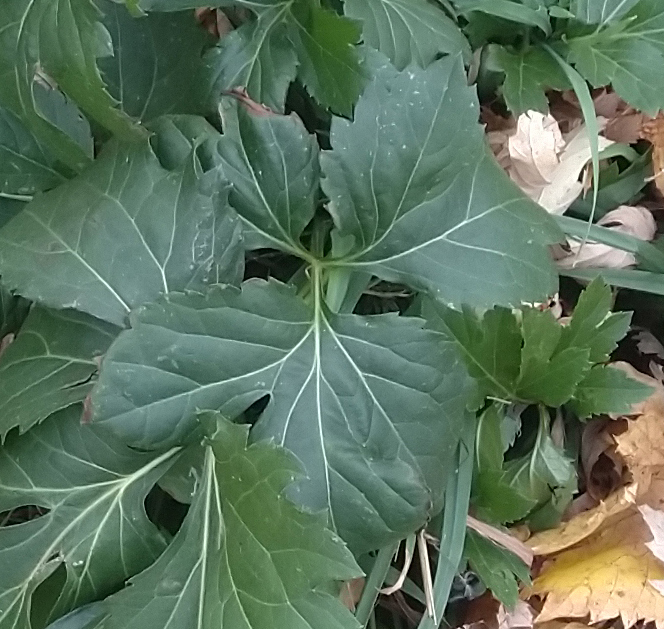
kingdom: Plantae
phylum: Tracheophyta
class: Magnoliopsida
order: Asterales
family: Asteraceae
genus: Rudbeckia
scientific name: Rudbeckia laciniata
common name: Coneflower
